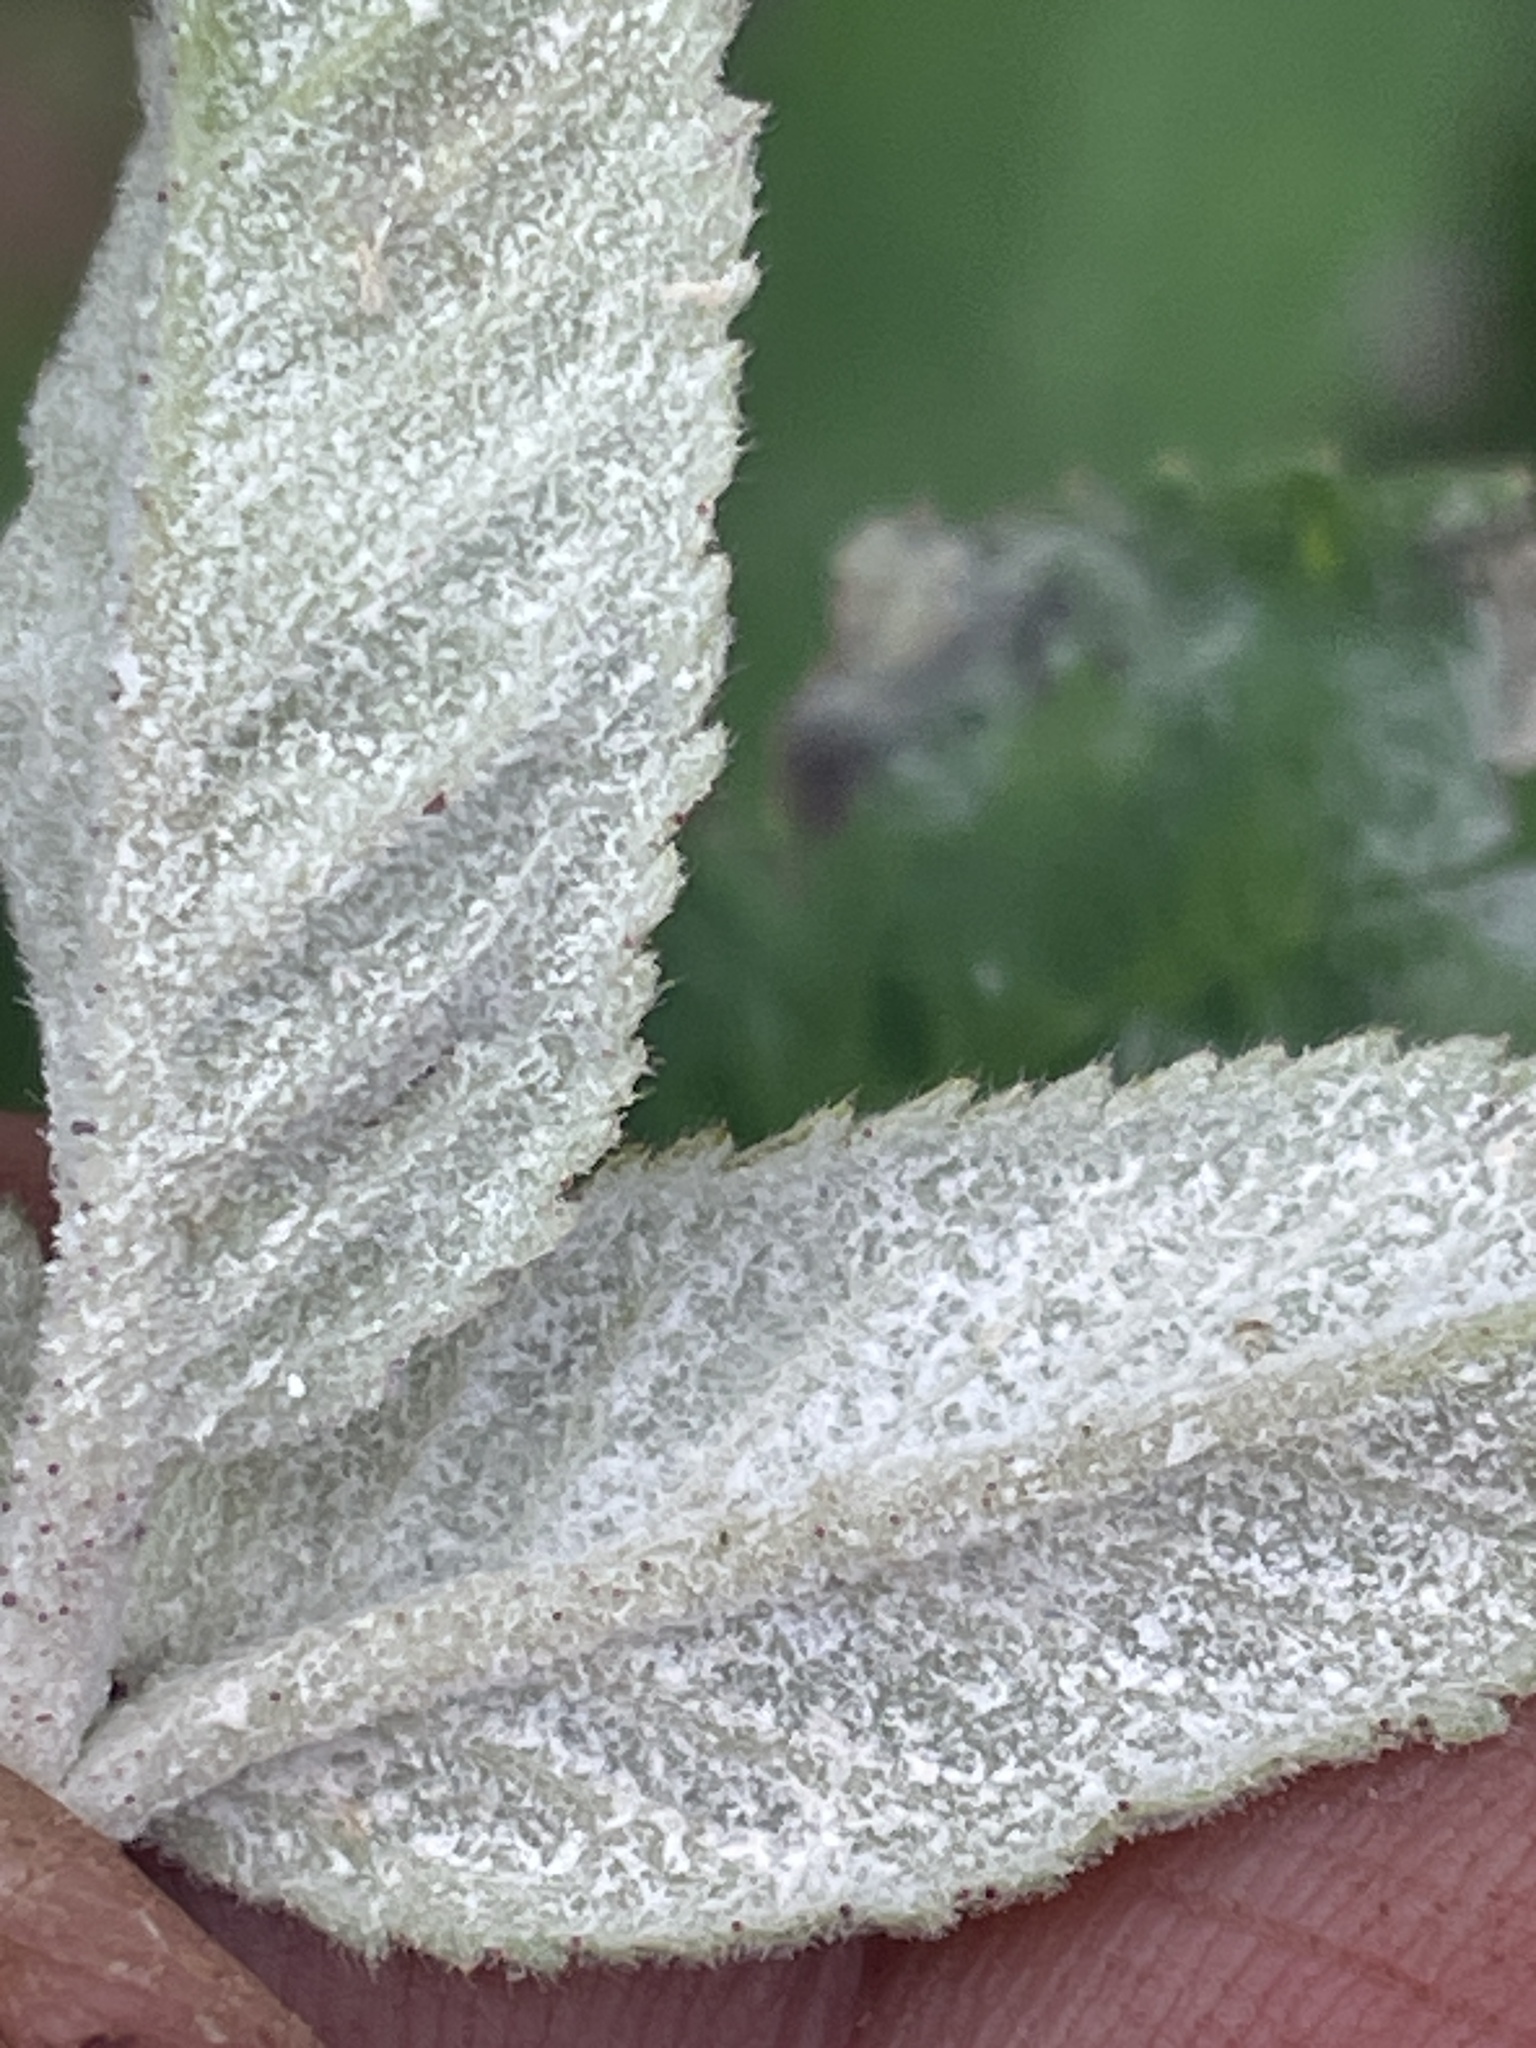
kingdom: Fungi
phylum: Ascomycota
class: Leotiomycetes
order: Helotiales
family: Erysiphaceae
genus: Podosphaera
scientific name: Podosphaera pannosa
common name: Rose mildew
